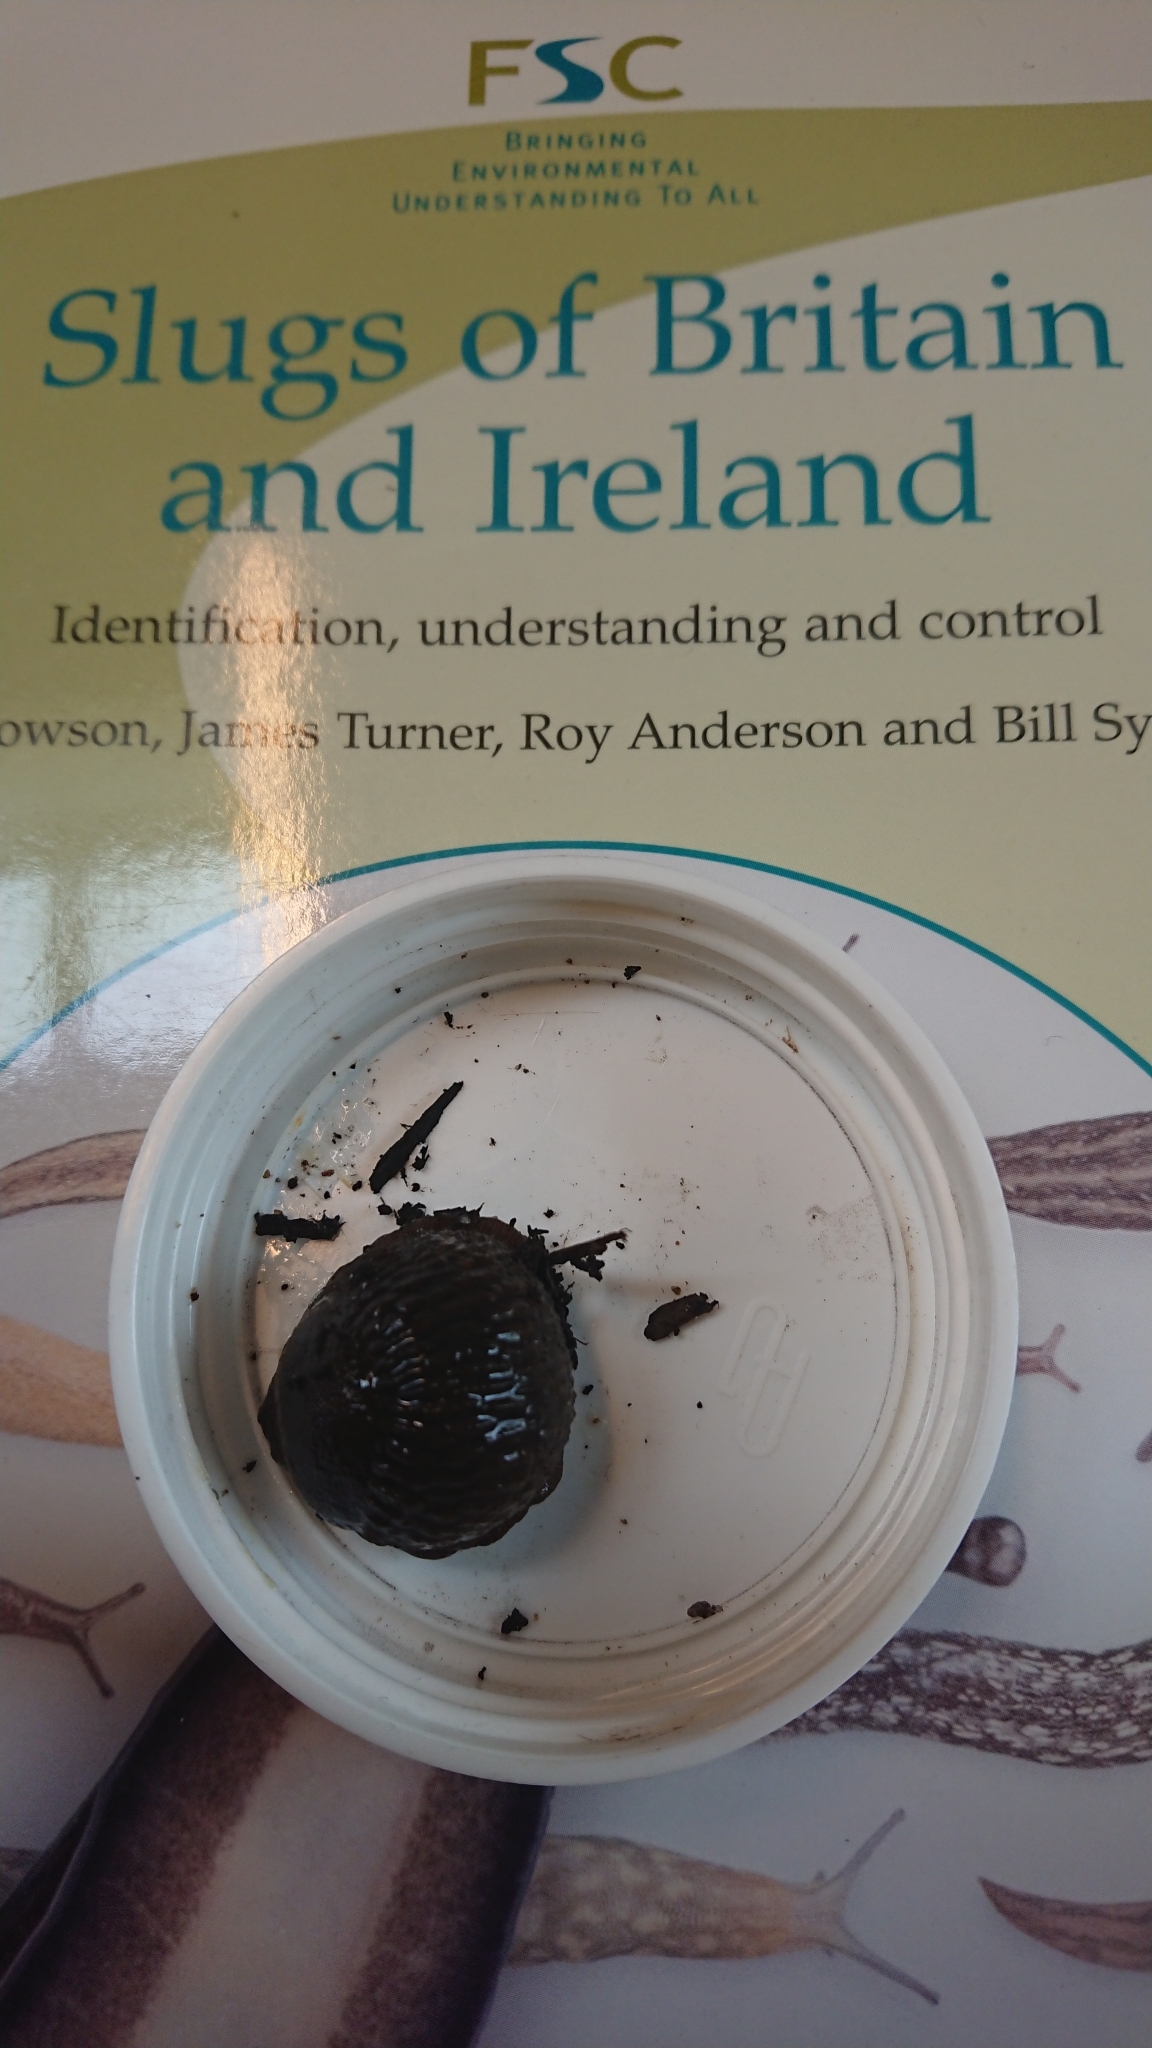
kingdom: Animalia
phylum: Mollusca
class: Gastropoda
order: Stylommatophora
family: Arionidae
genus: Arion
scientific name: Arion vulgaris
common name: Lusitanian slug
